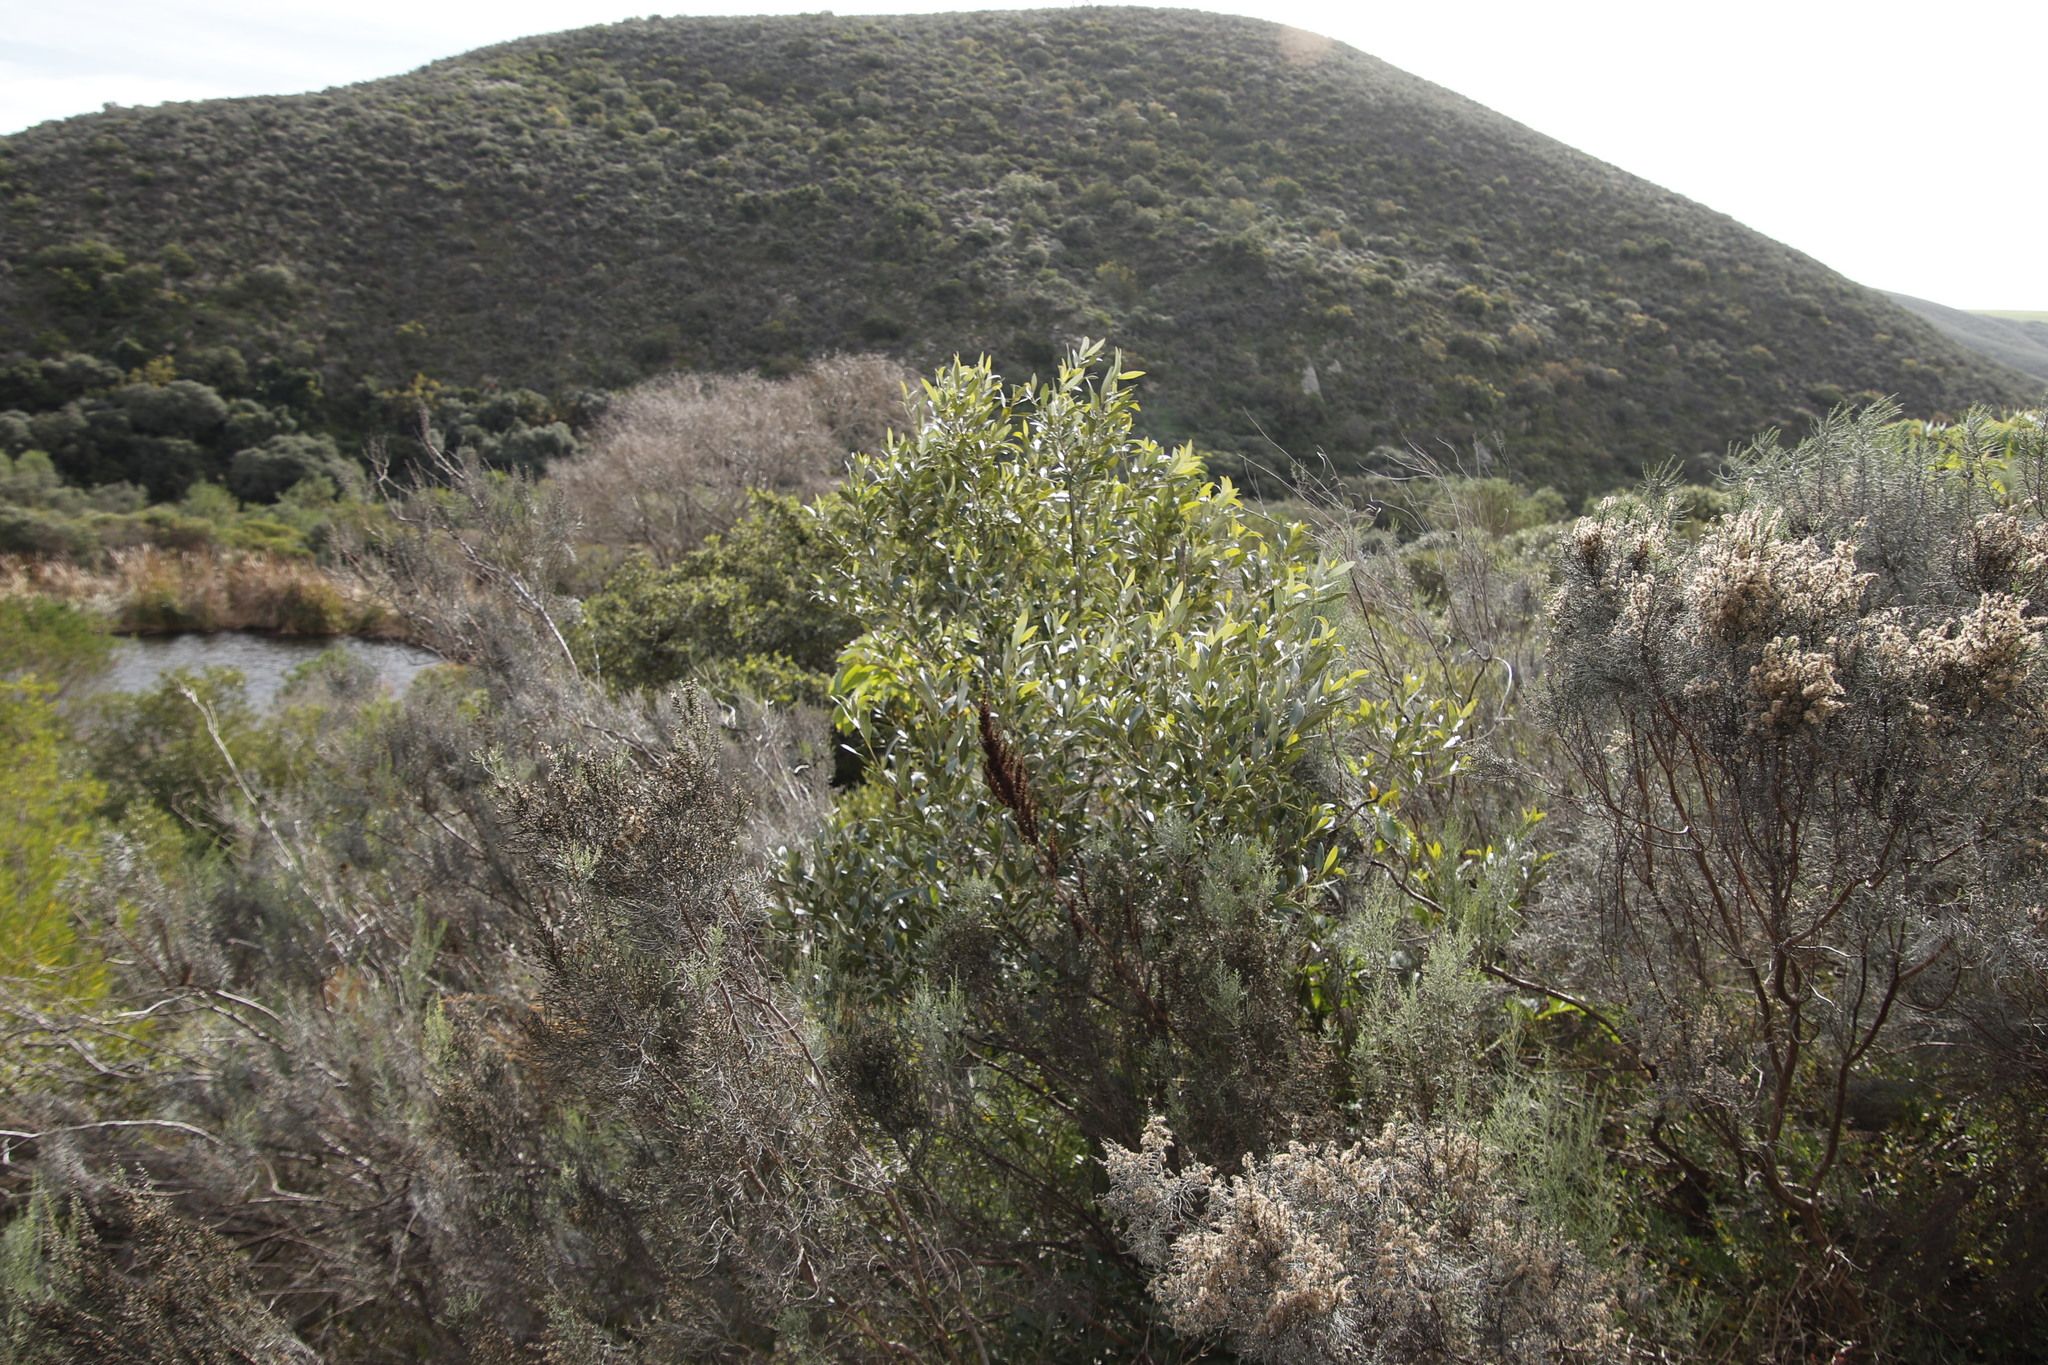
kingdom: Plantae
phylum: Tracheophyta
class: Magnoliopsida
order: Lamiales
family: Oleaceae
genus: Olea
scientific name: Olea europaea
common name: Olive
